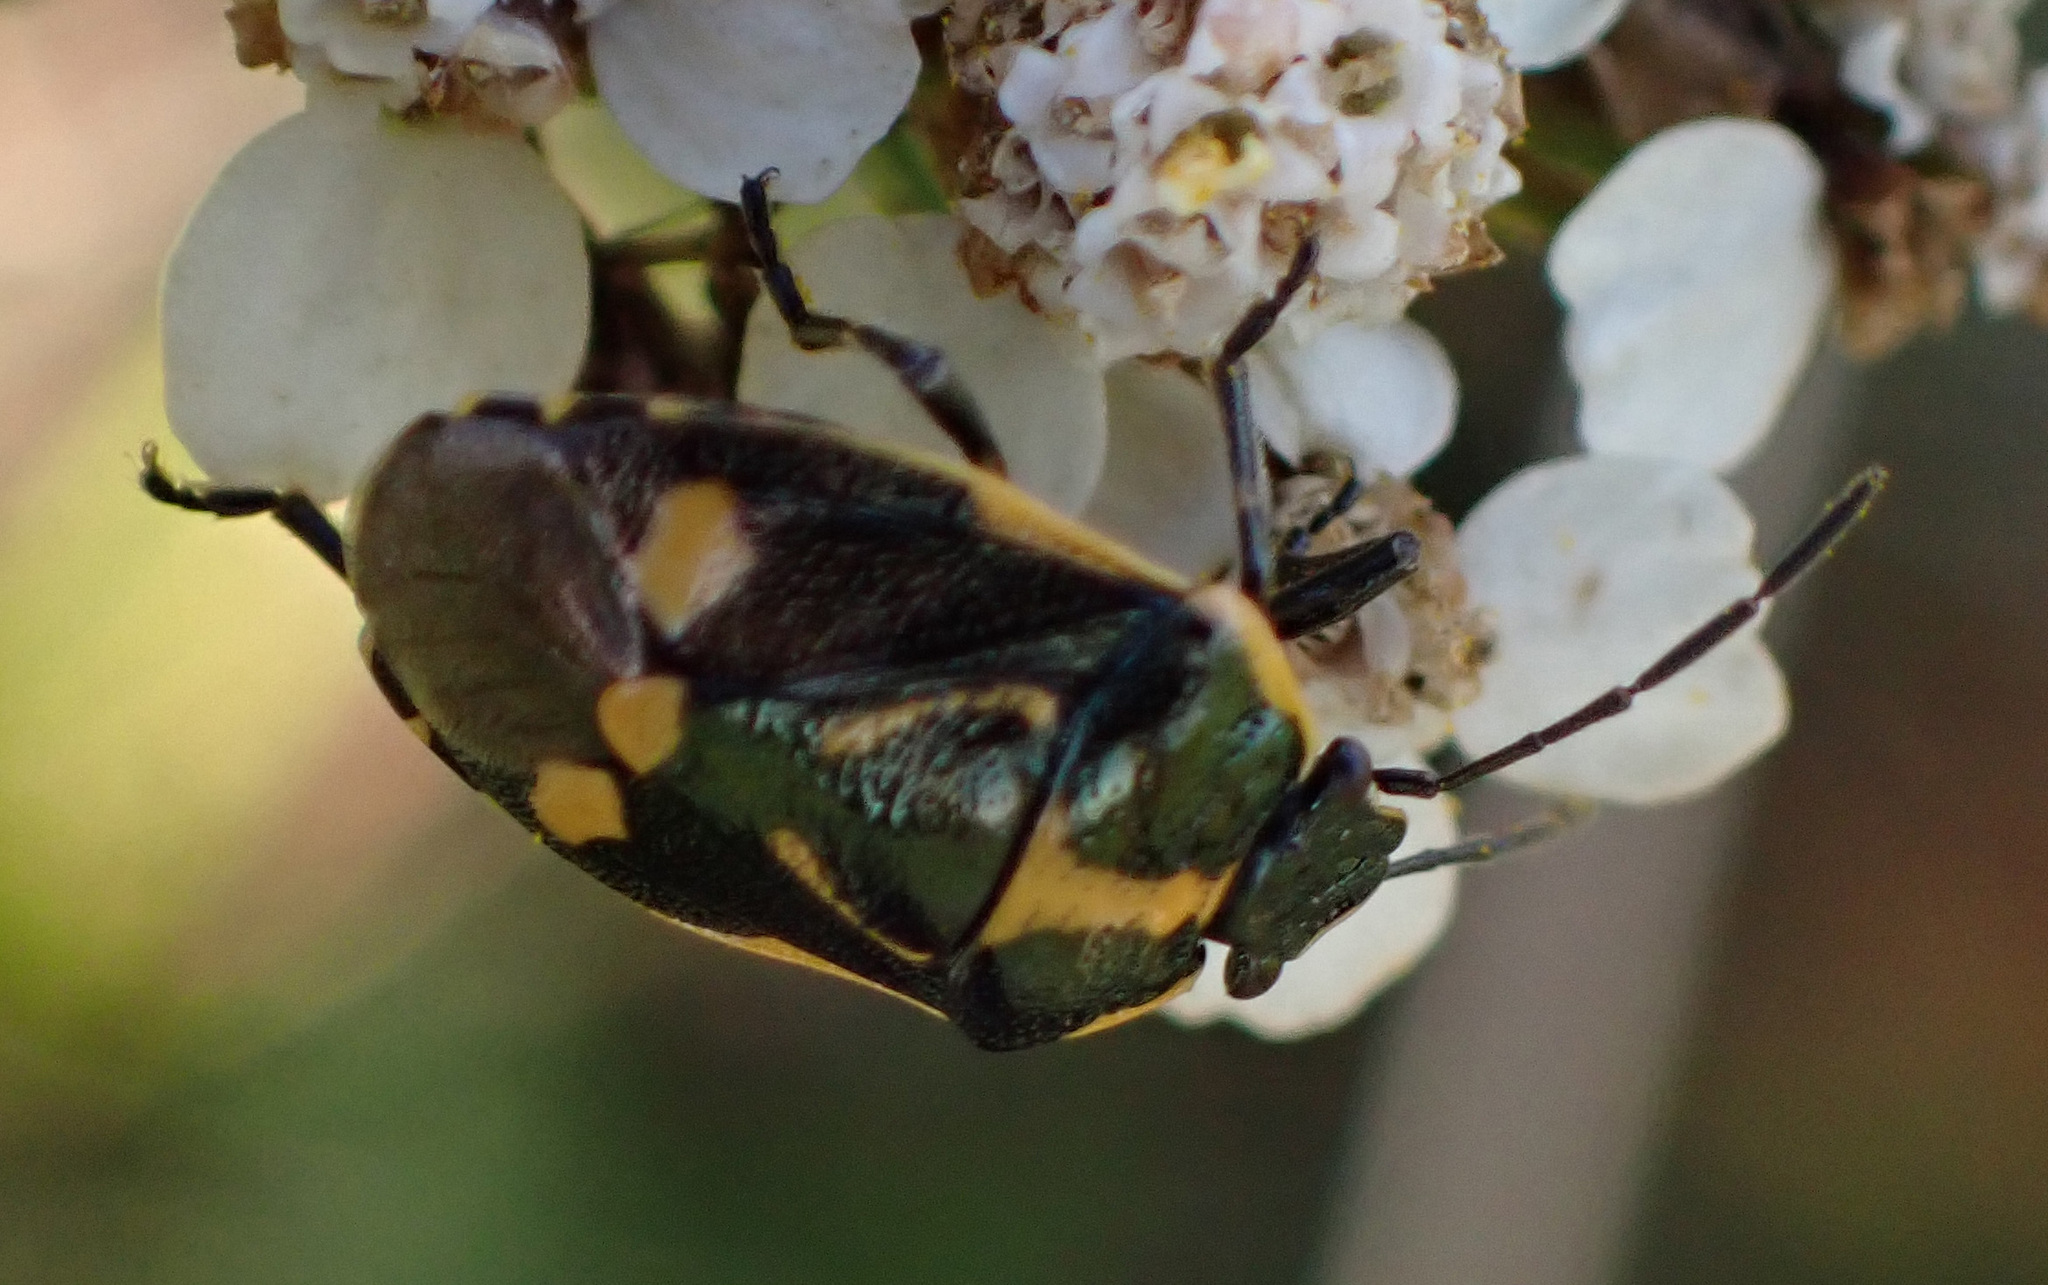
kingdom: Animalia
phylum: Arthropoda
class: Insecta
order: Hemiptera
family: Pentatomidae
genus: Eurydema
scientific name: Eurydema oleracea
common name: Cabbage bug
